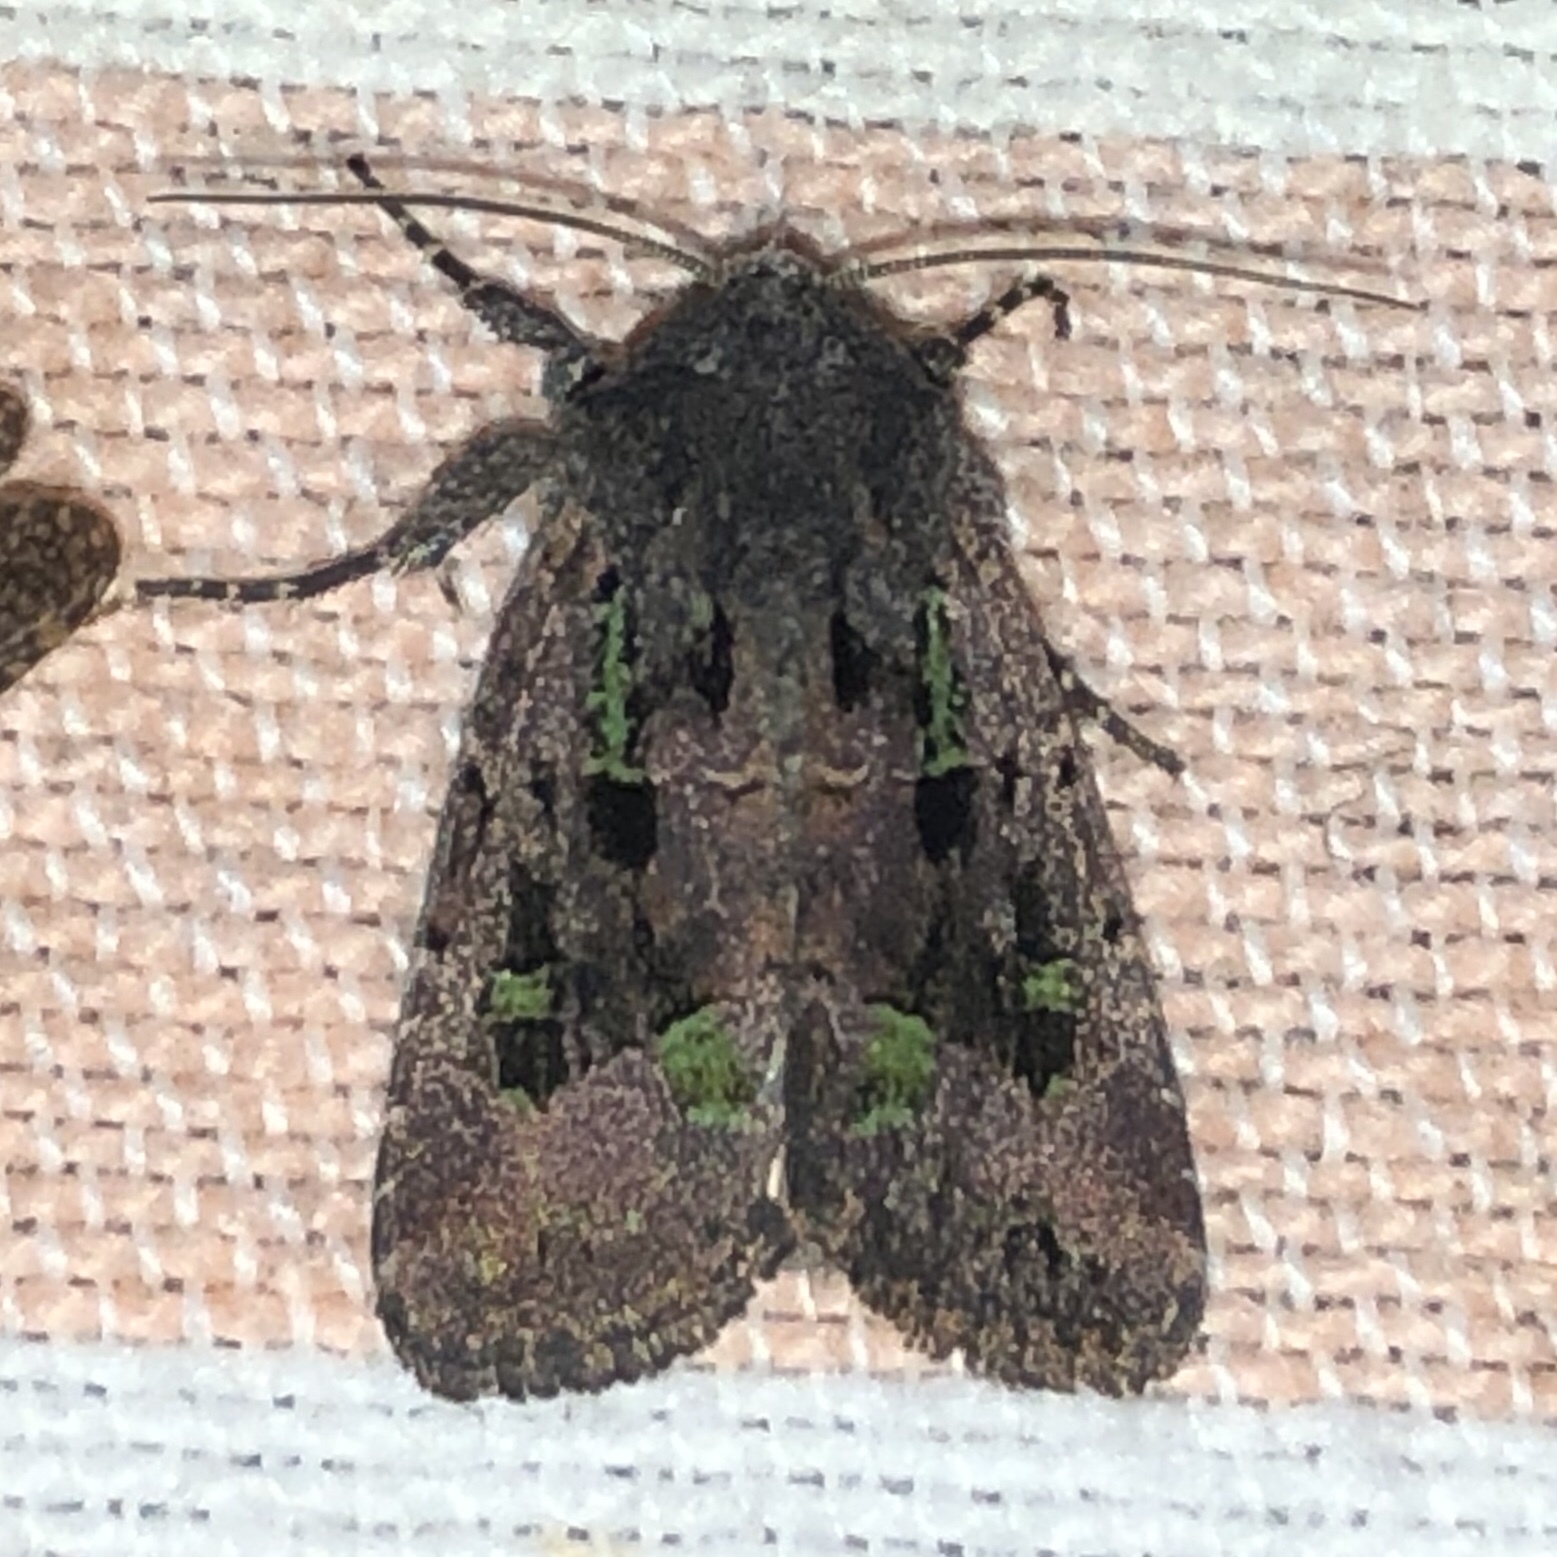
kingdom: Animalia
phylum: Arthropoda
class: Insecta
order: Lepidoptera
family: Noctuidae
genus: Lacinipolia
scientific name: Lacinipolia renigera
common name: Kidney-spotted minor
